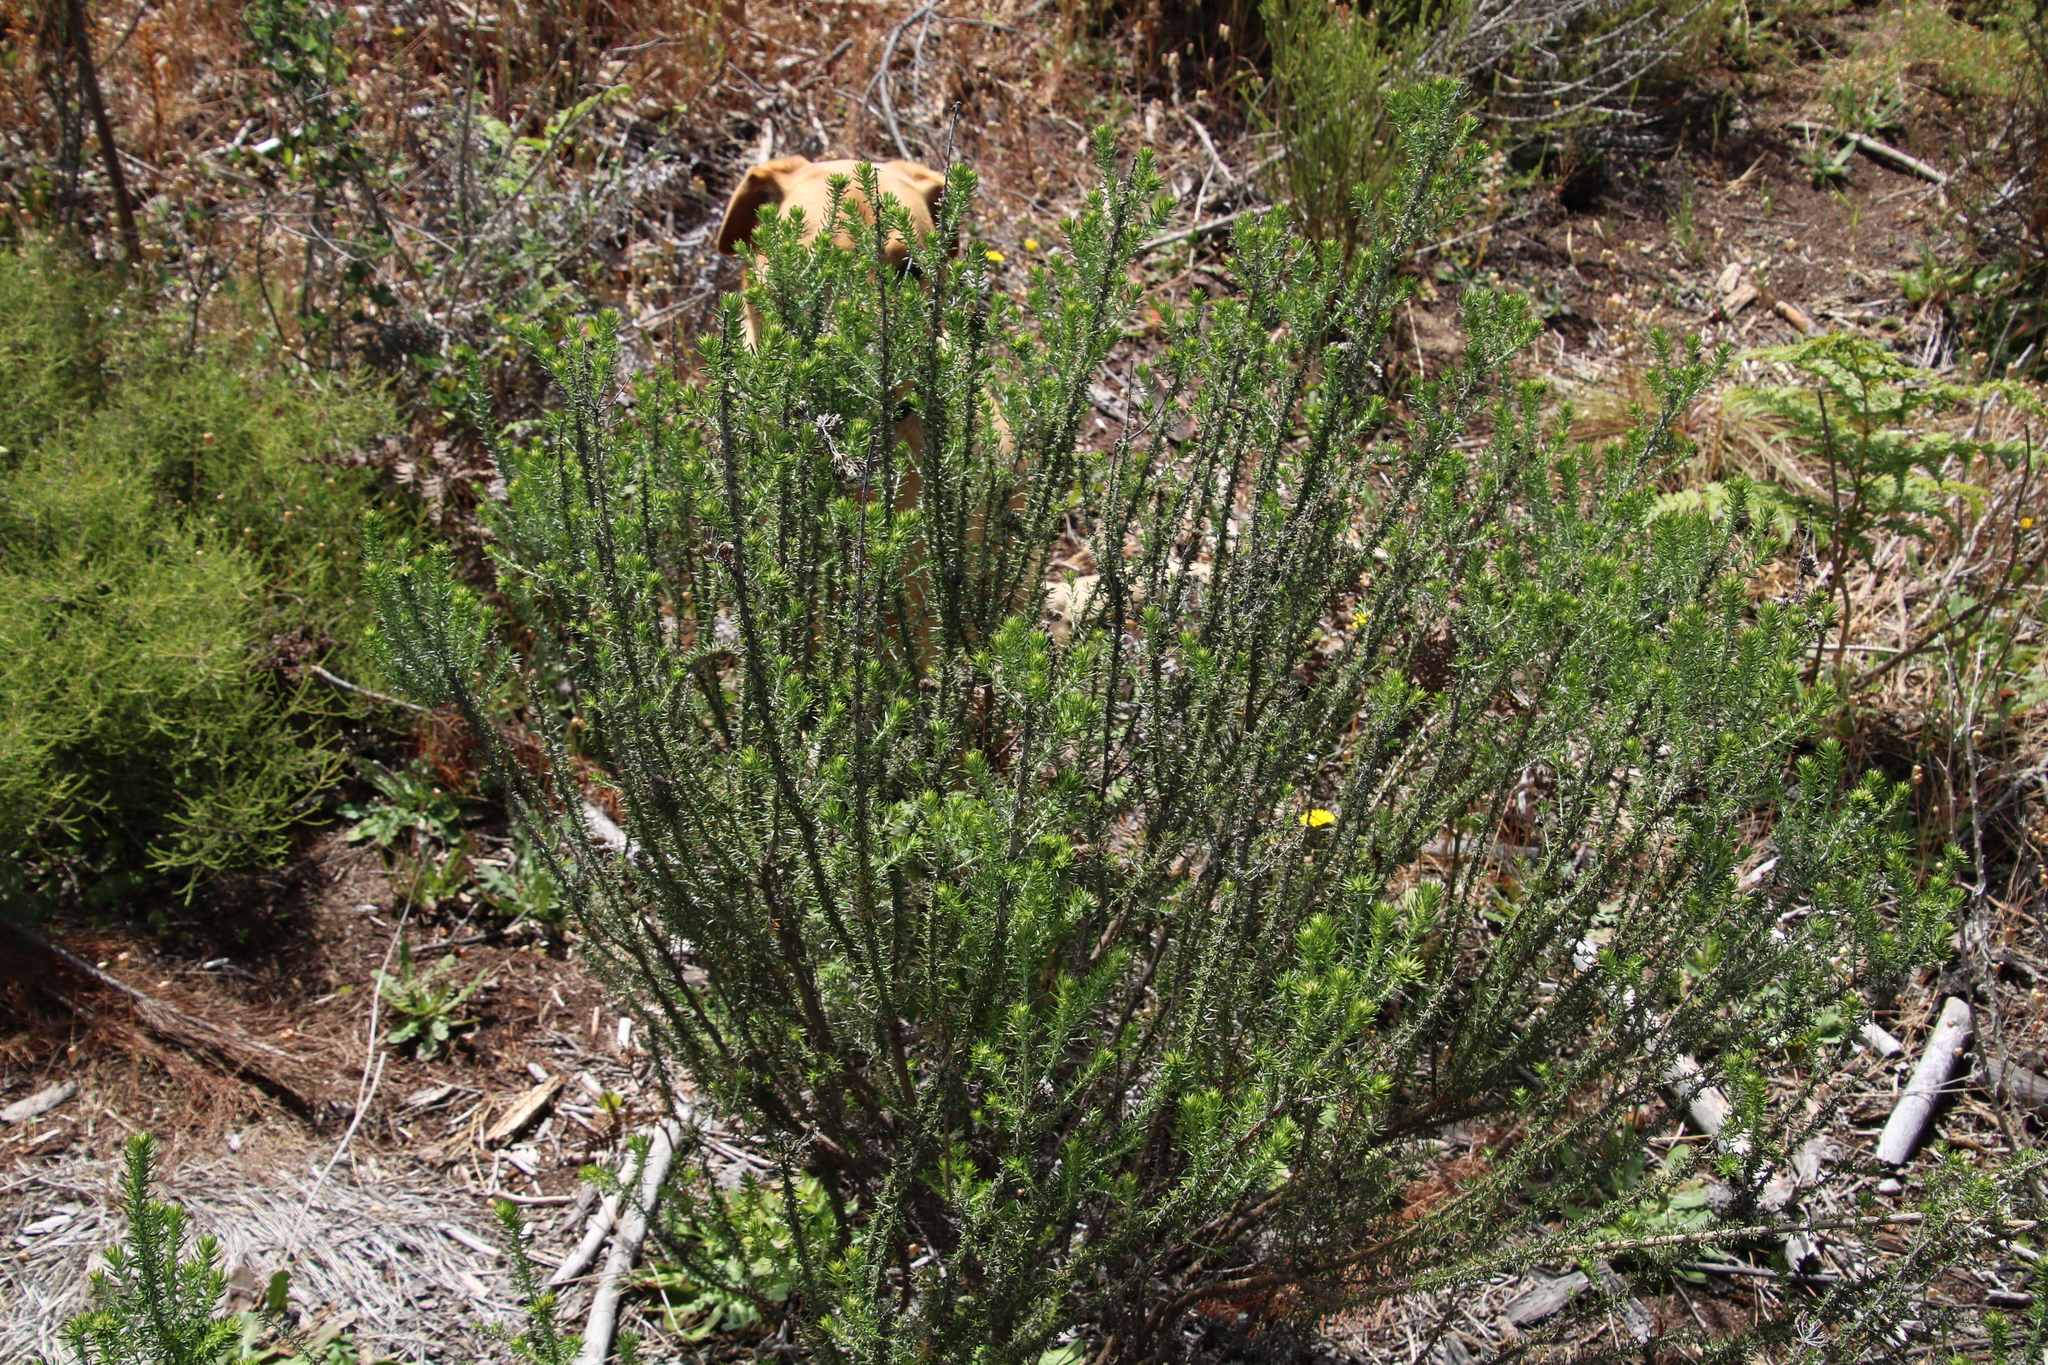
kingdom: Plantae
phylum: Tracheophyta
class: Magnoliopsida
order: Asterales
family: Asteraceae
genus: Metalasia
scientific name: Metalasia densa
